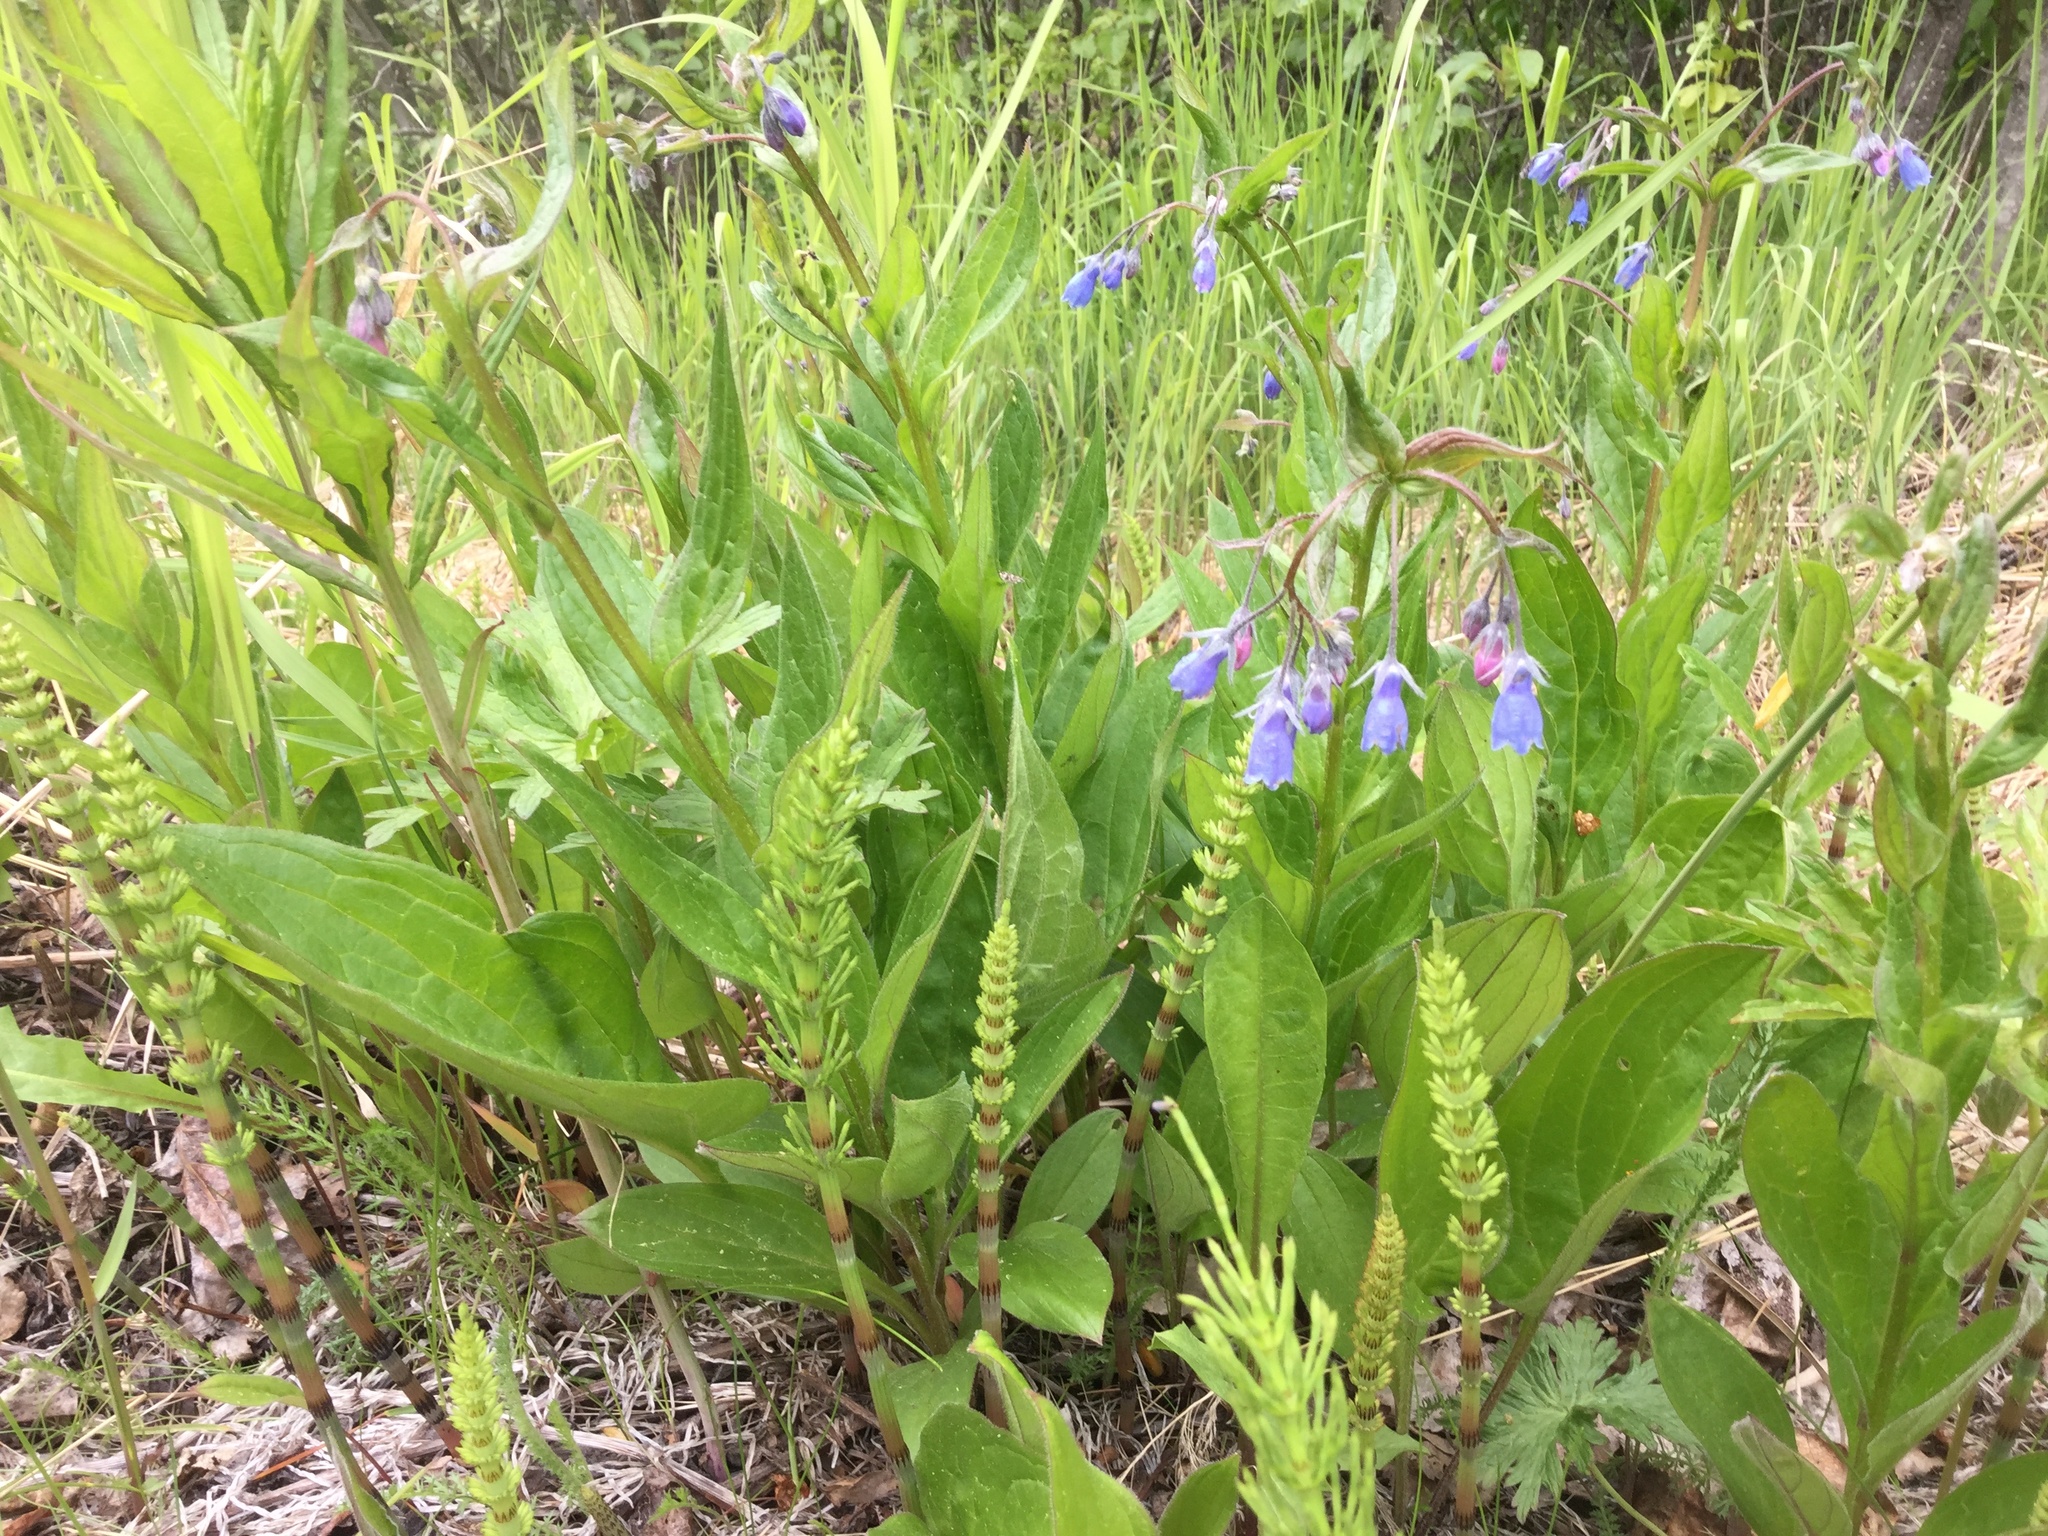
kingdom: Plantae
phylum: Tracheophyta
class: Magnoliopsida
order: Boraginales
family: Boraginaceae
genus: Mertensia
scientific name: Mertensia paniculata
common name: Panicled bluebells
